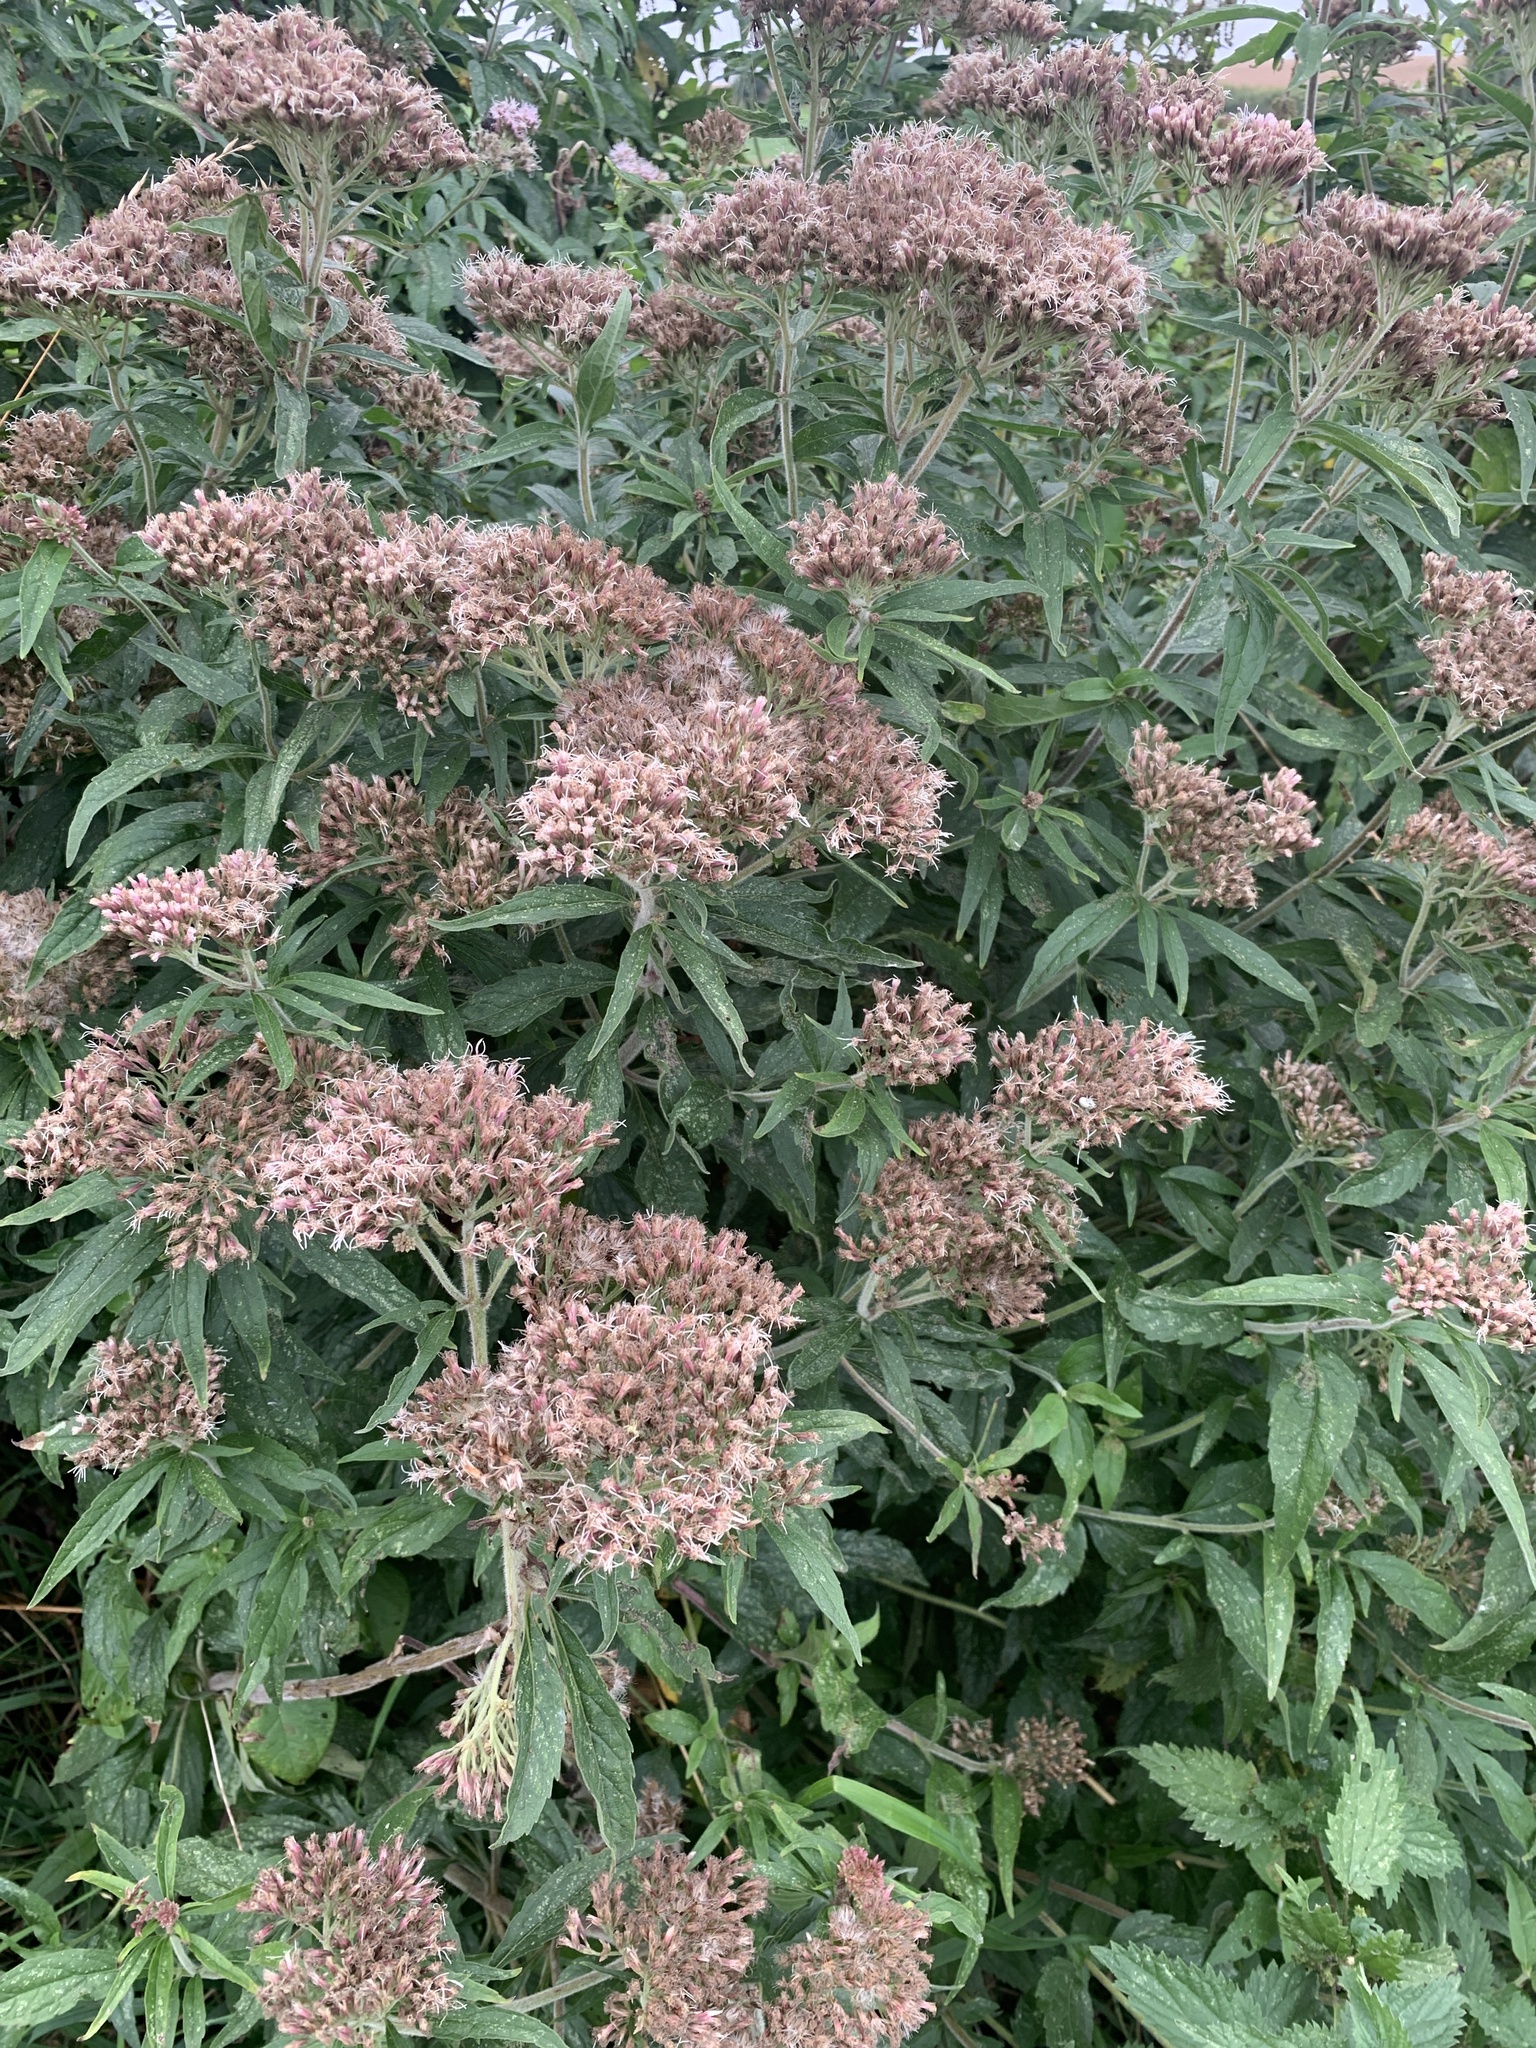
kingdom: Plantae
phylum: Tracheophyta
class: Magnoliopsida
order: Asterales
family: Asteraceae
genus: Eupatorium
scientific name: Eupatorium cannabinum
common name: Hemp-agrimony
